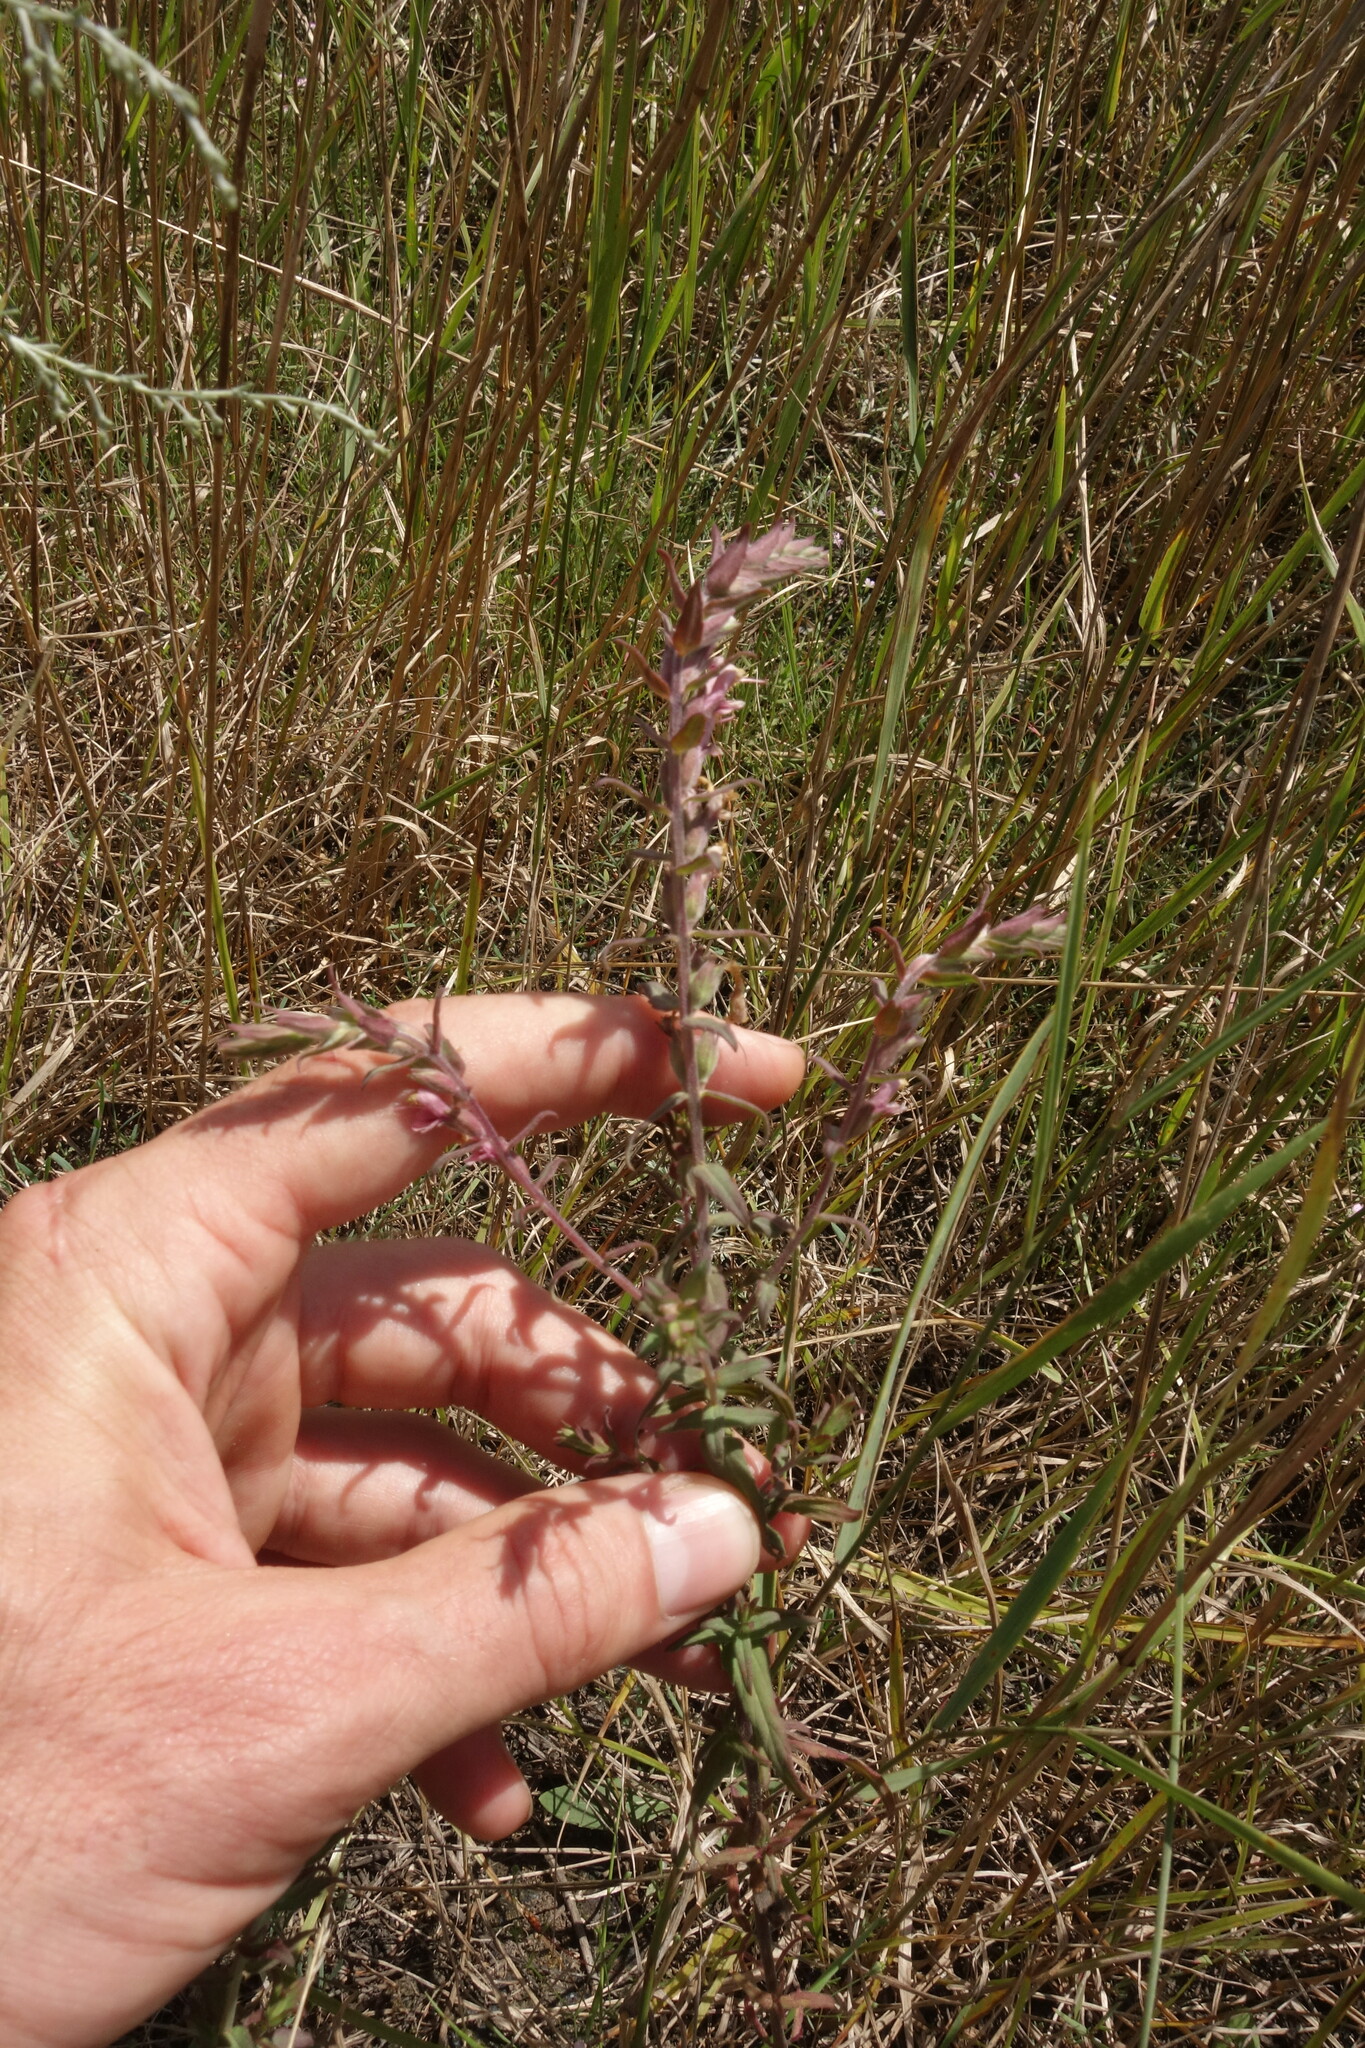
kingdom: Plantae
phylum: Tracheophyta
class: Magnoliopsida
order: Lamiales
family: Orobanchaceae
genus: Odontites
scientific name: Odontites vulgaris
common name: Broomrape
